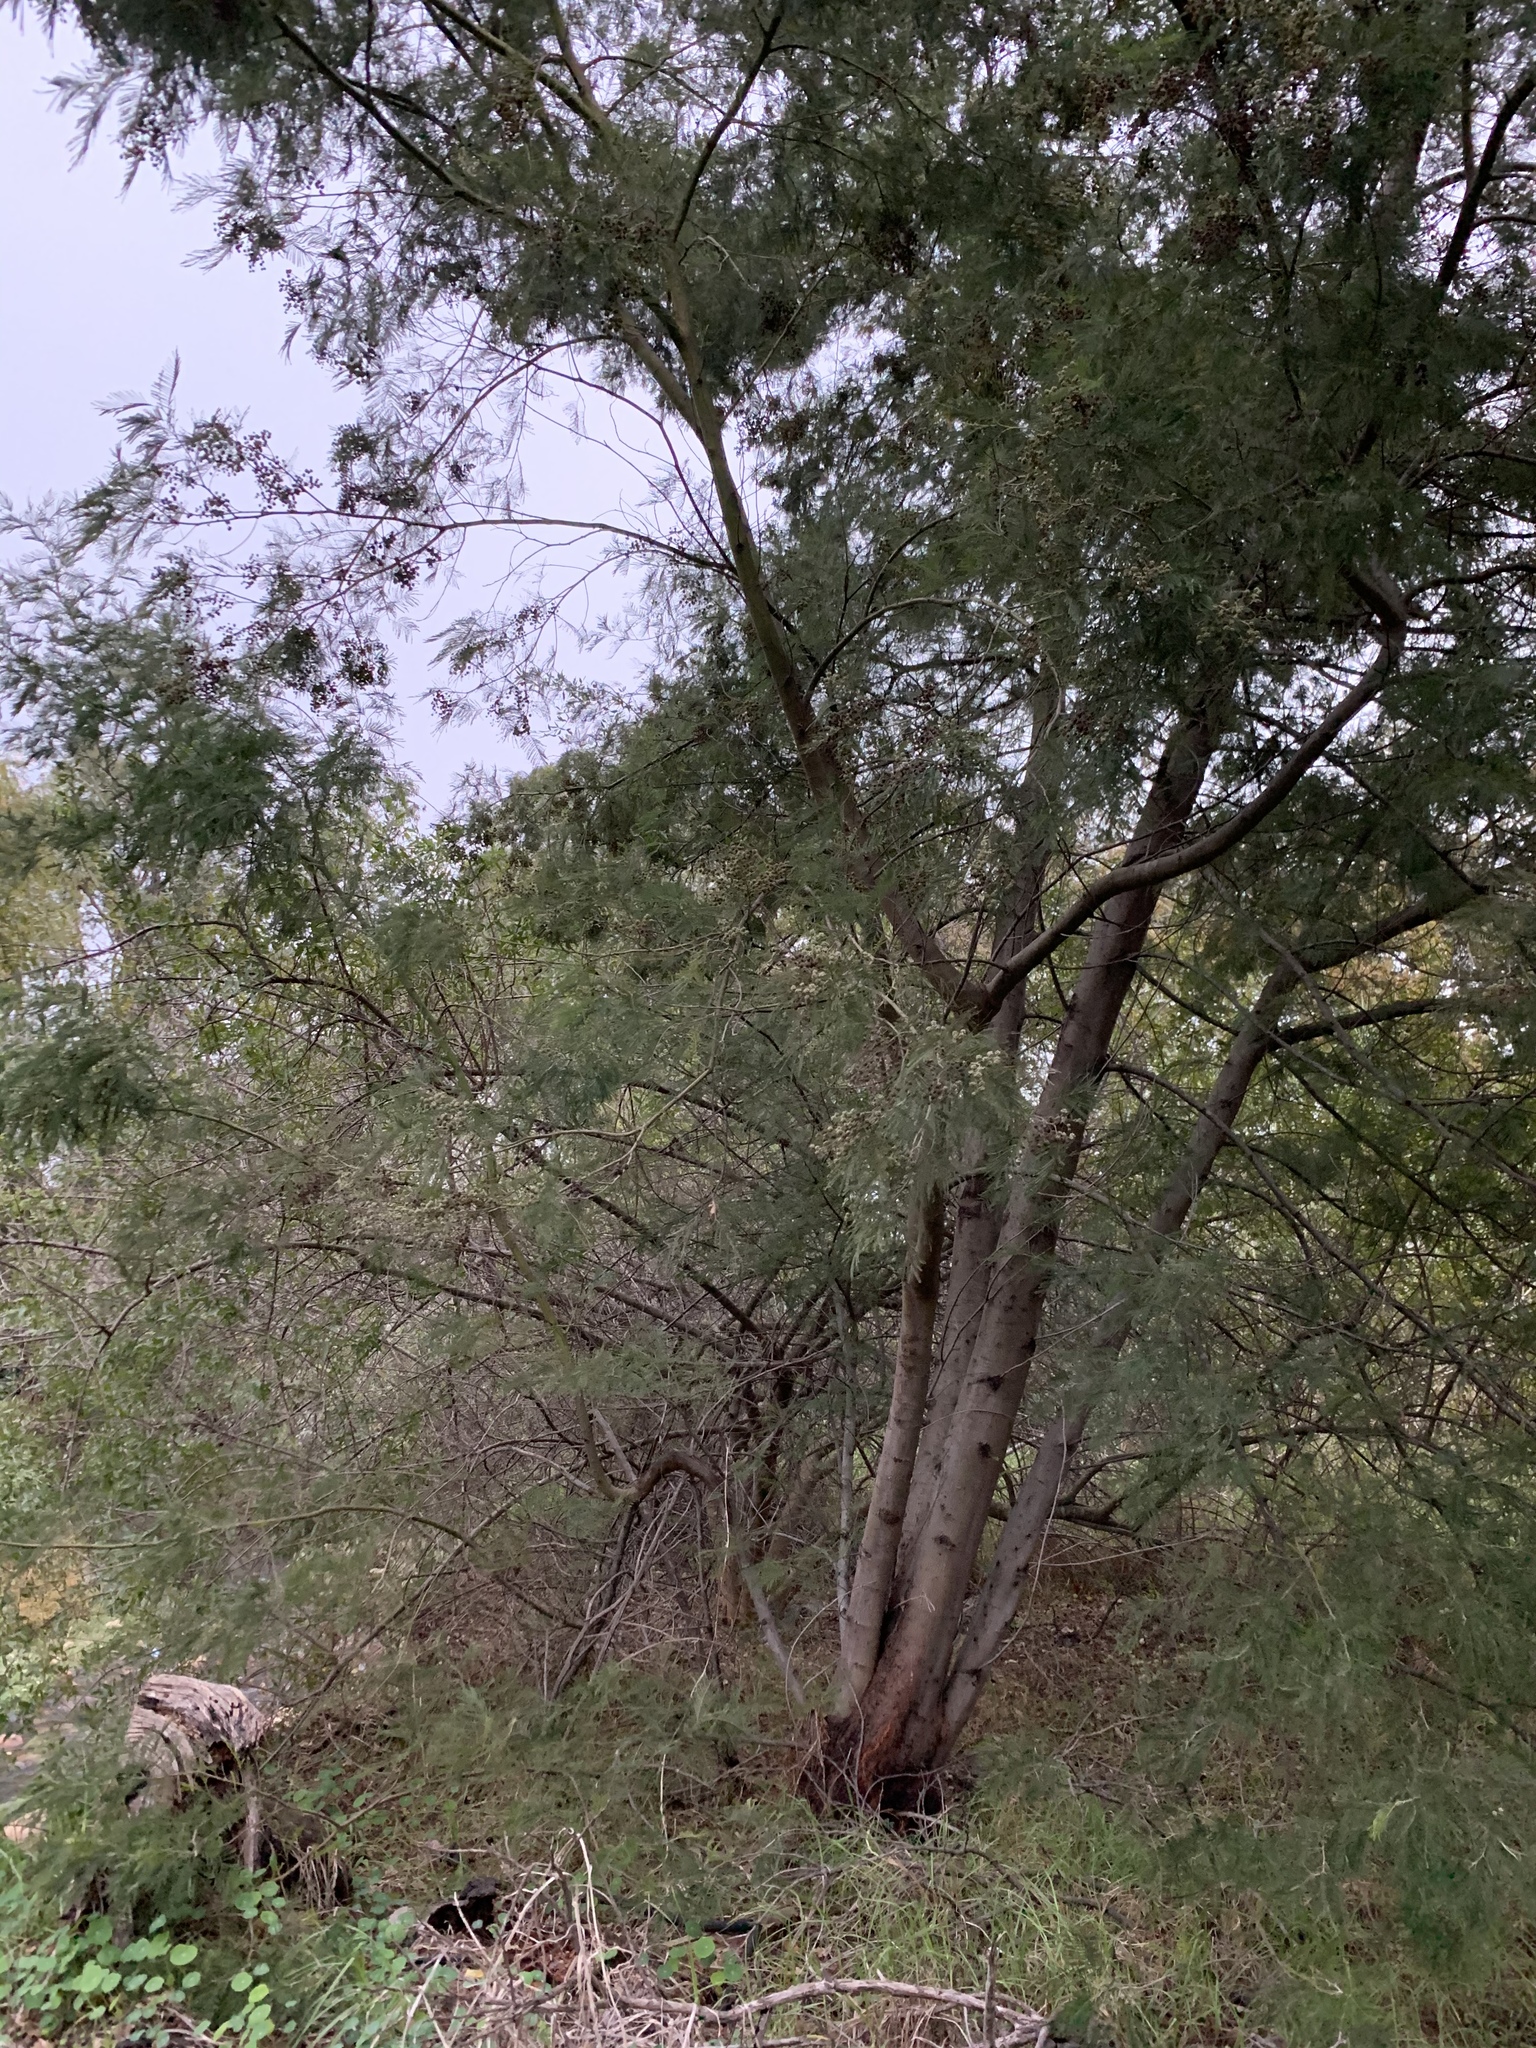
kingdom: Plantae
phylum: Tracheophyta
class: Magnoliopsida
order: Fabales
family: Fabaceae
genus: Acacia
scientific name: Acacia mearnsii
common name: Black wattle
